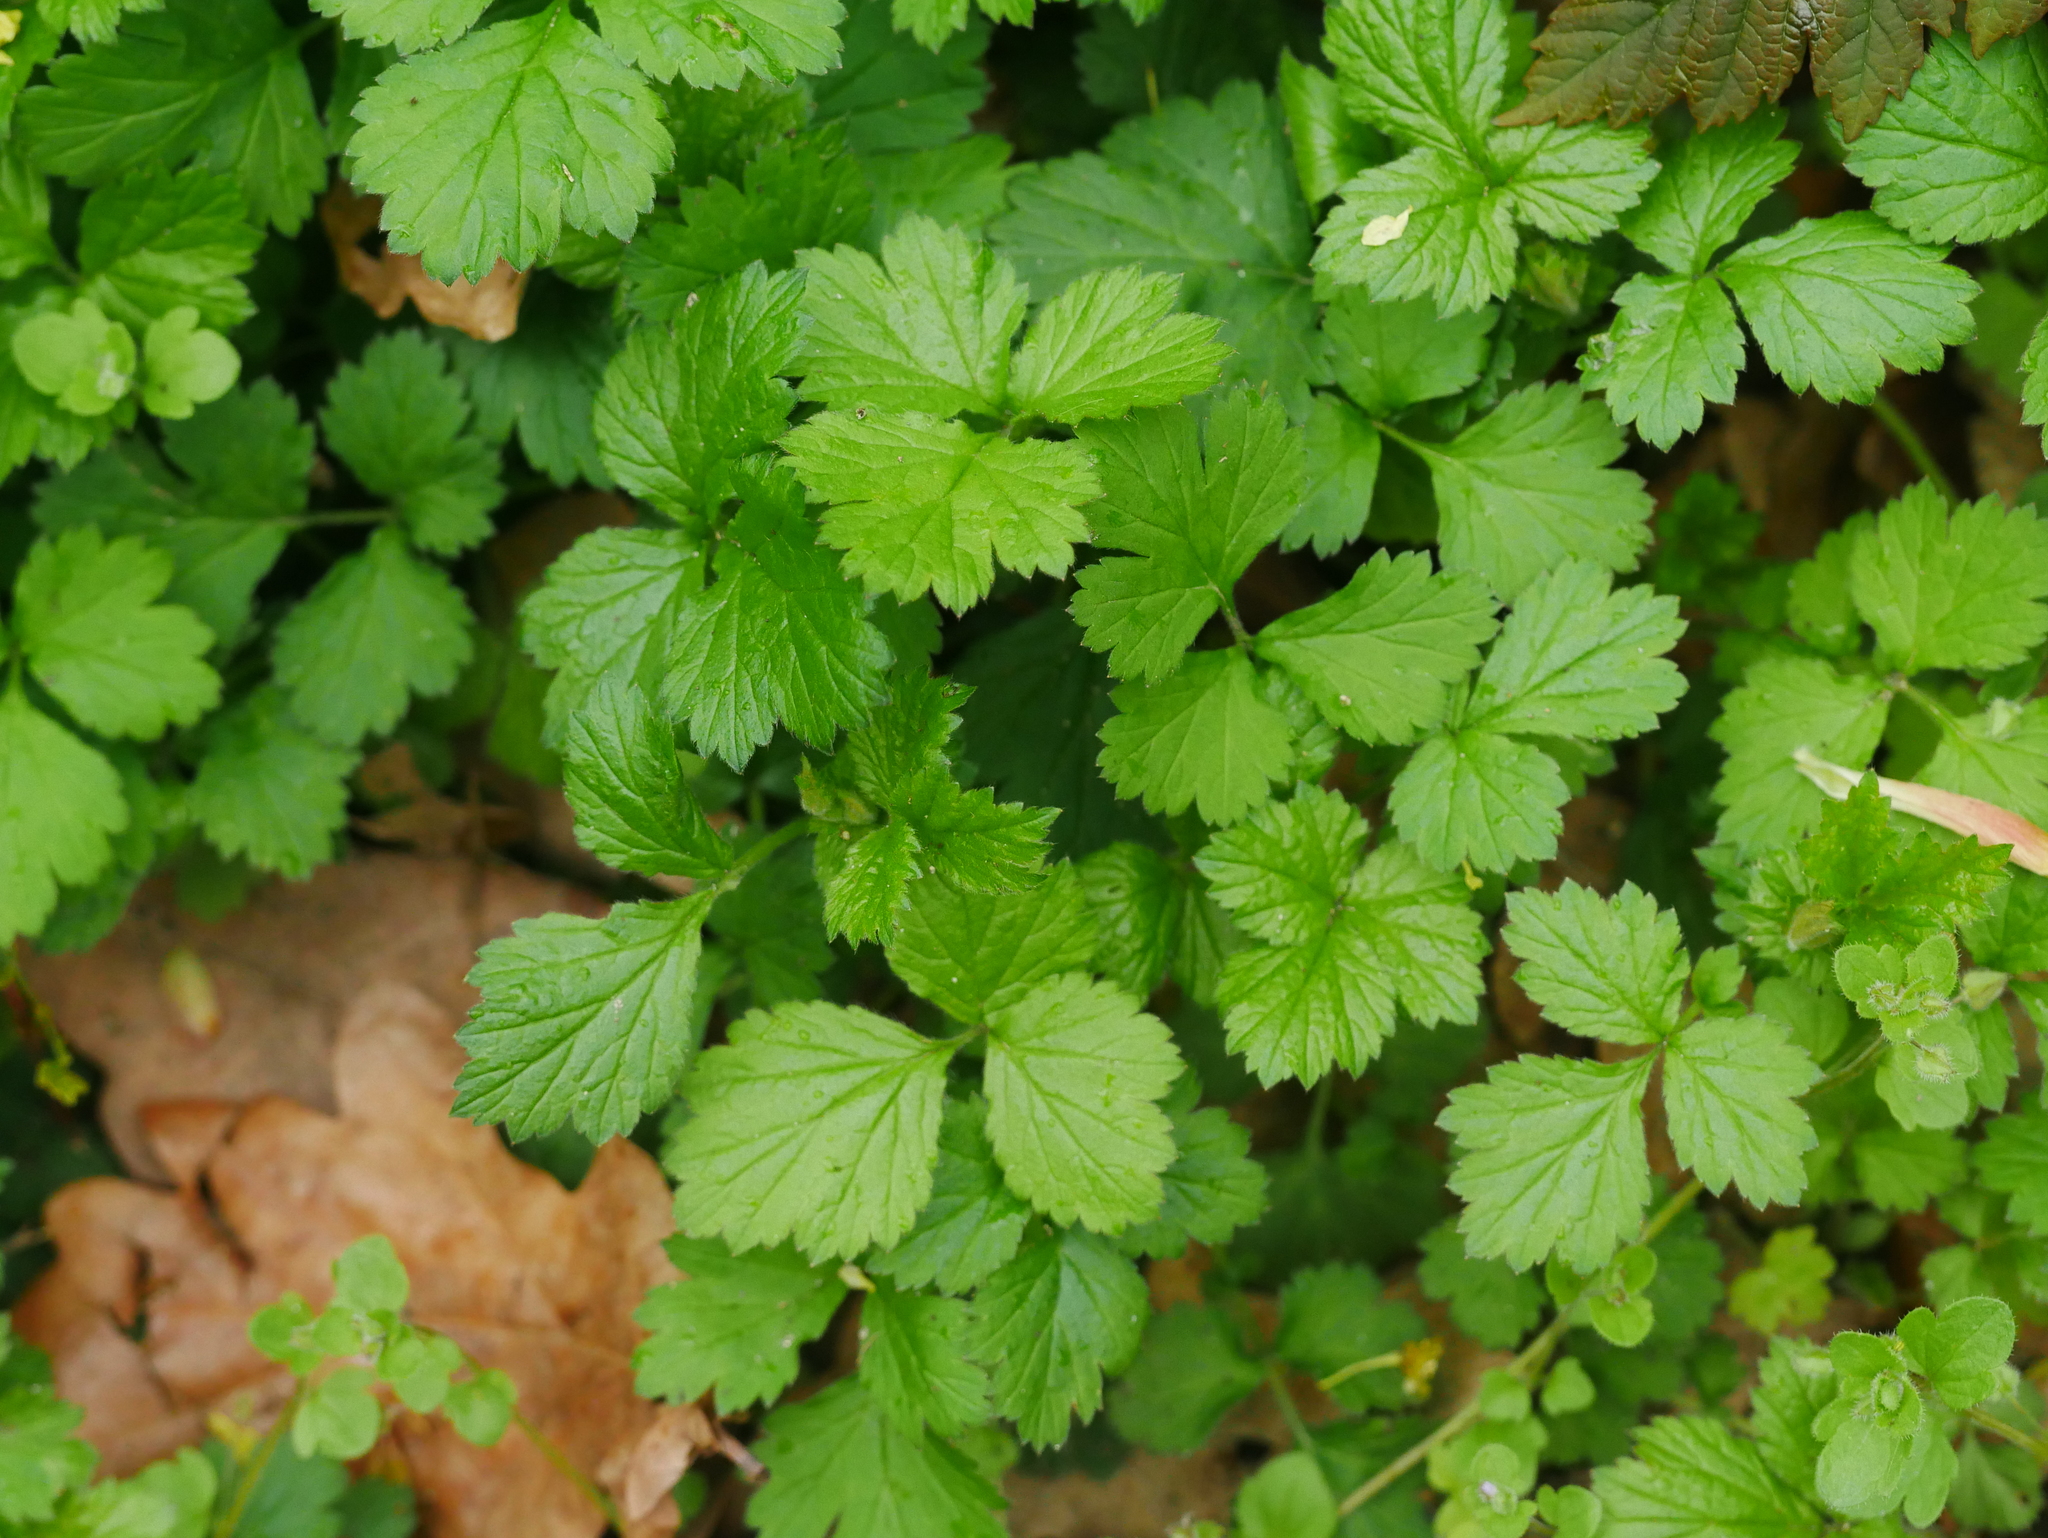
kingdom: Plantae
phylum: Tracheophyta
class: Magnoliopsida
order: Rosales
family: Rosaceae
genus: Geum
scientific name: Geum urbanum
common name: Wood avens
